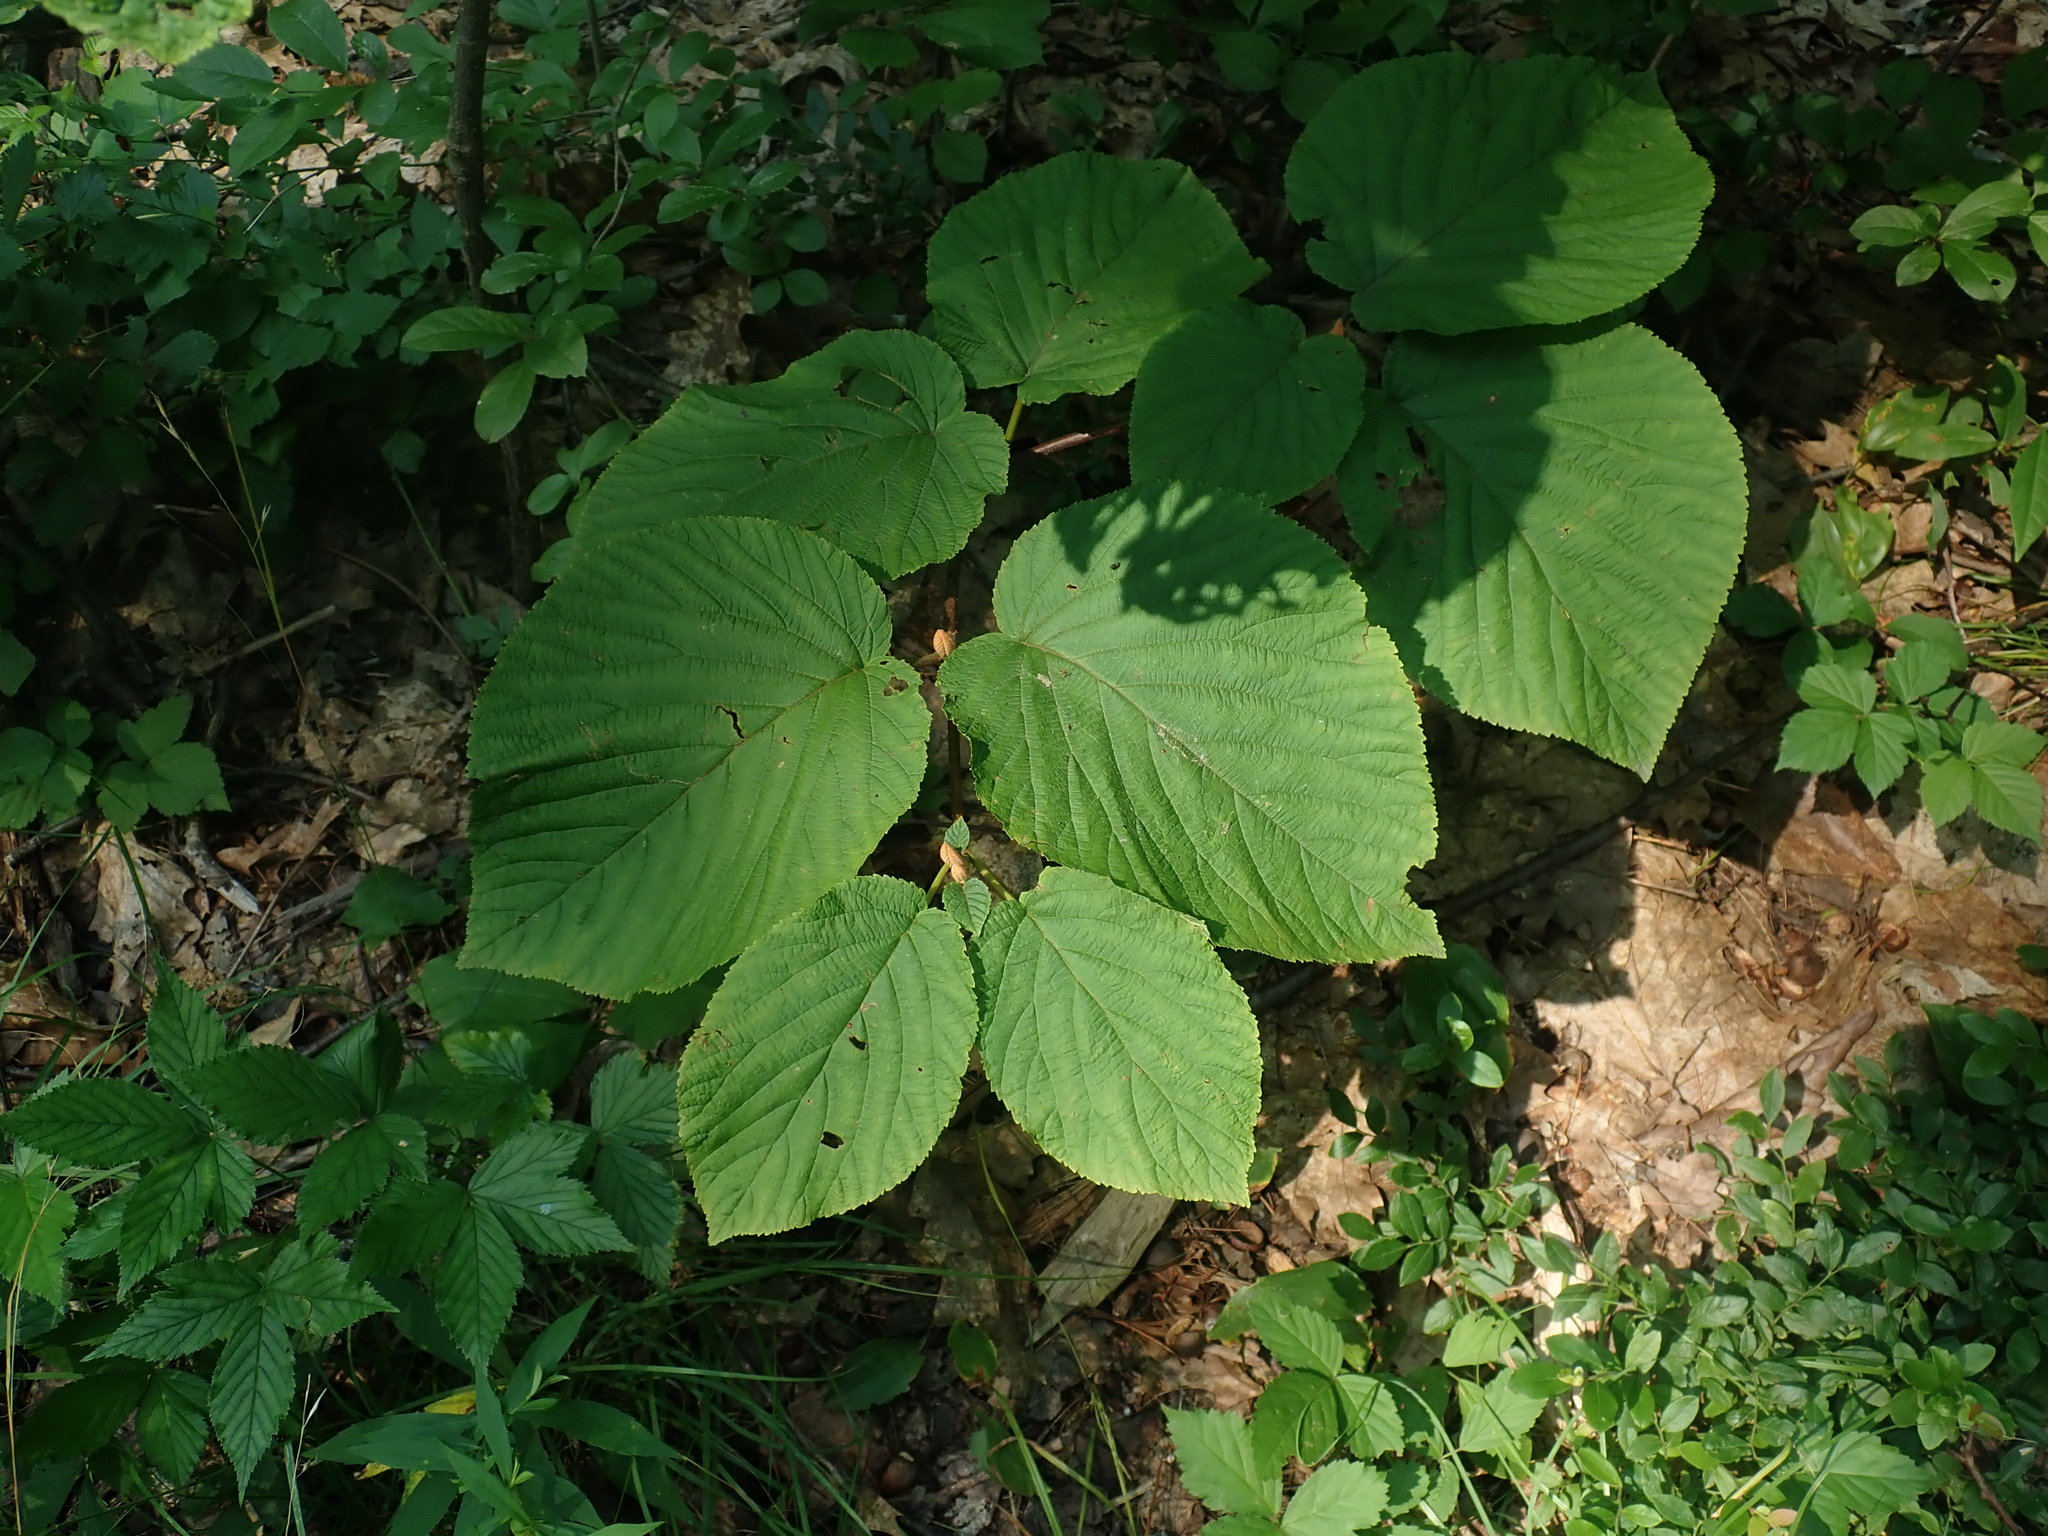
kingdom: Plantae
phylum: Tracheophyta
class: Magnoliopsida
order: Dipsacales
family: Viburnaceae
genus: Viburnum
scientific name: Viburnum lantanoides
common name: Hobblebush
